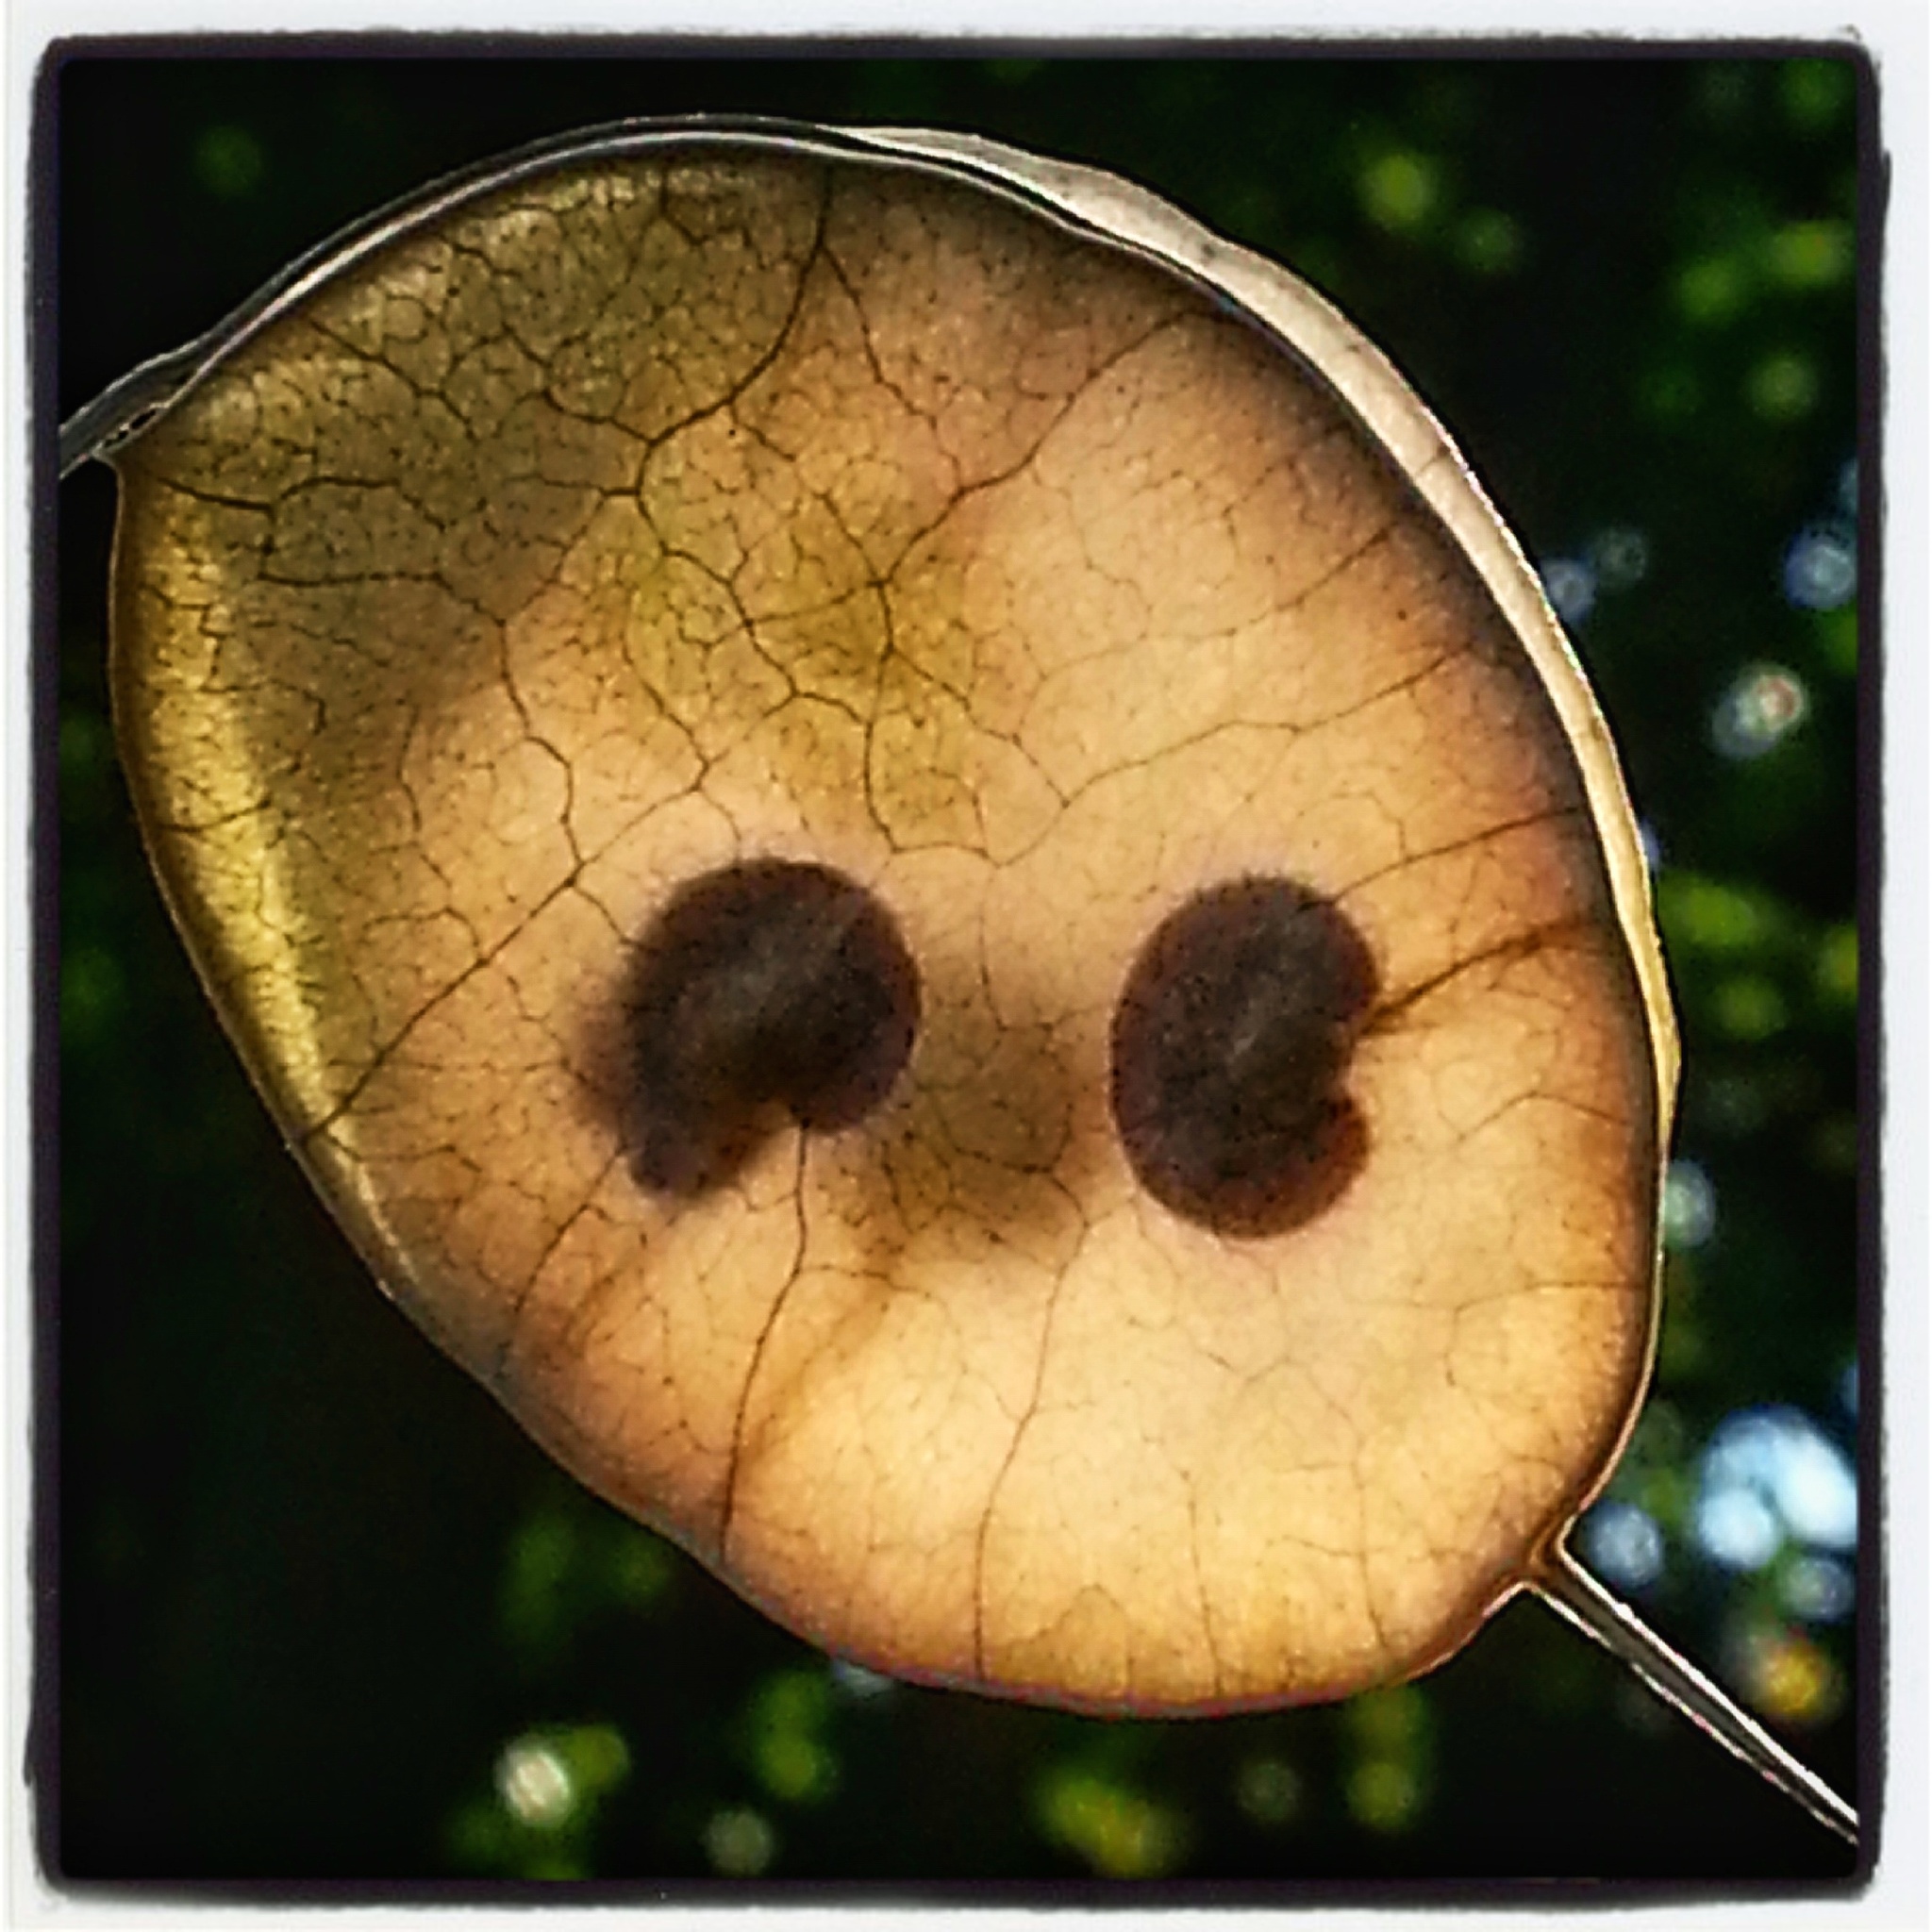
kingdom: Plantae
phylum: Tracheophyta
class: Magnoliopsida
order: Brassicales
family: Brassicaceae
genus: Lunaria
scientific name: Lunaria annua
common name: Honesty
